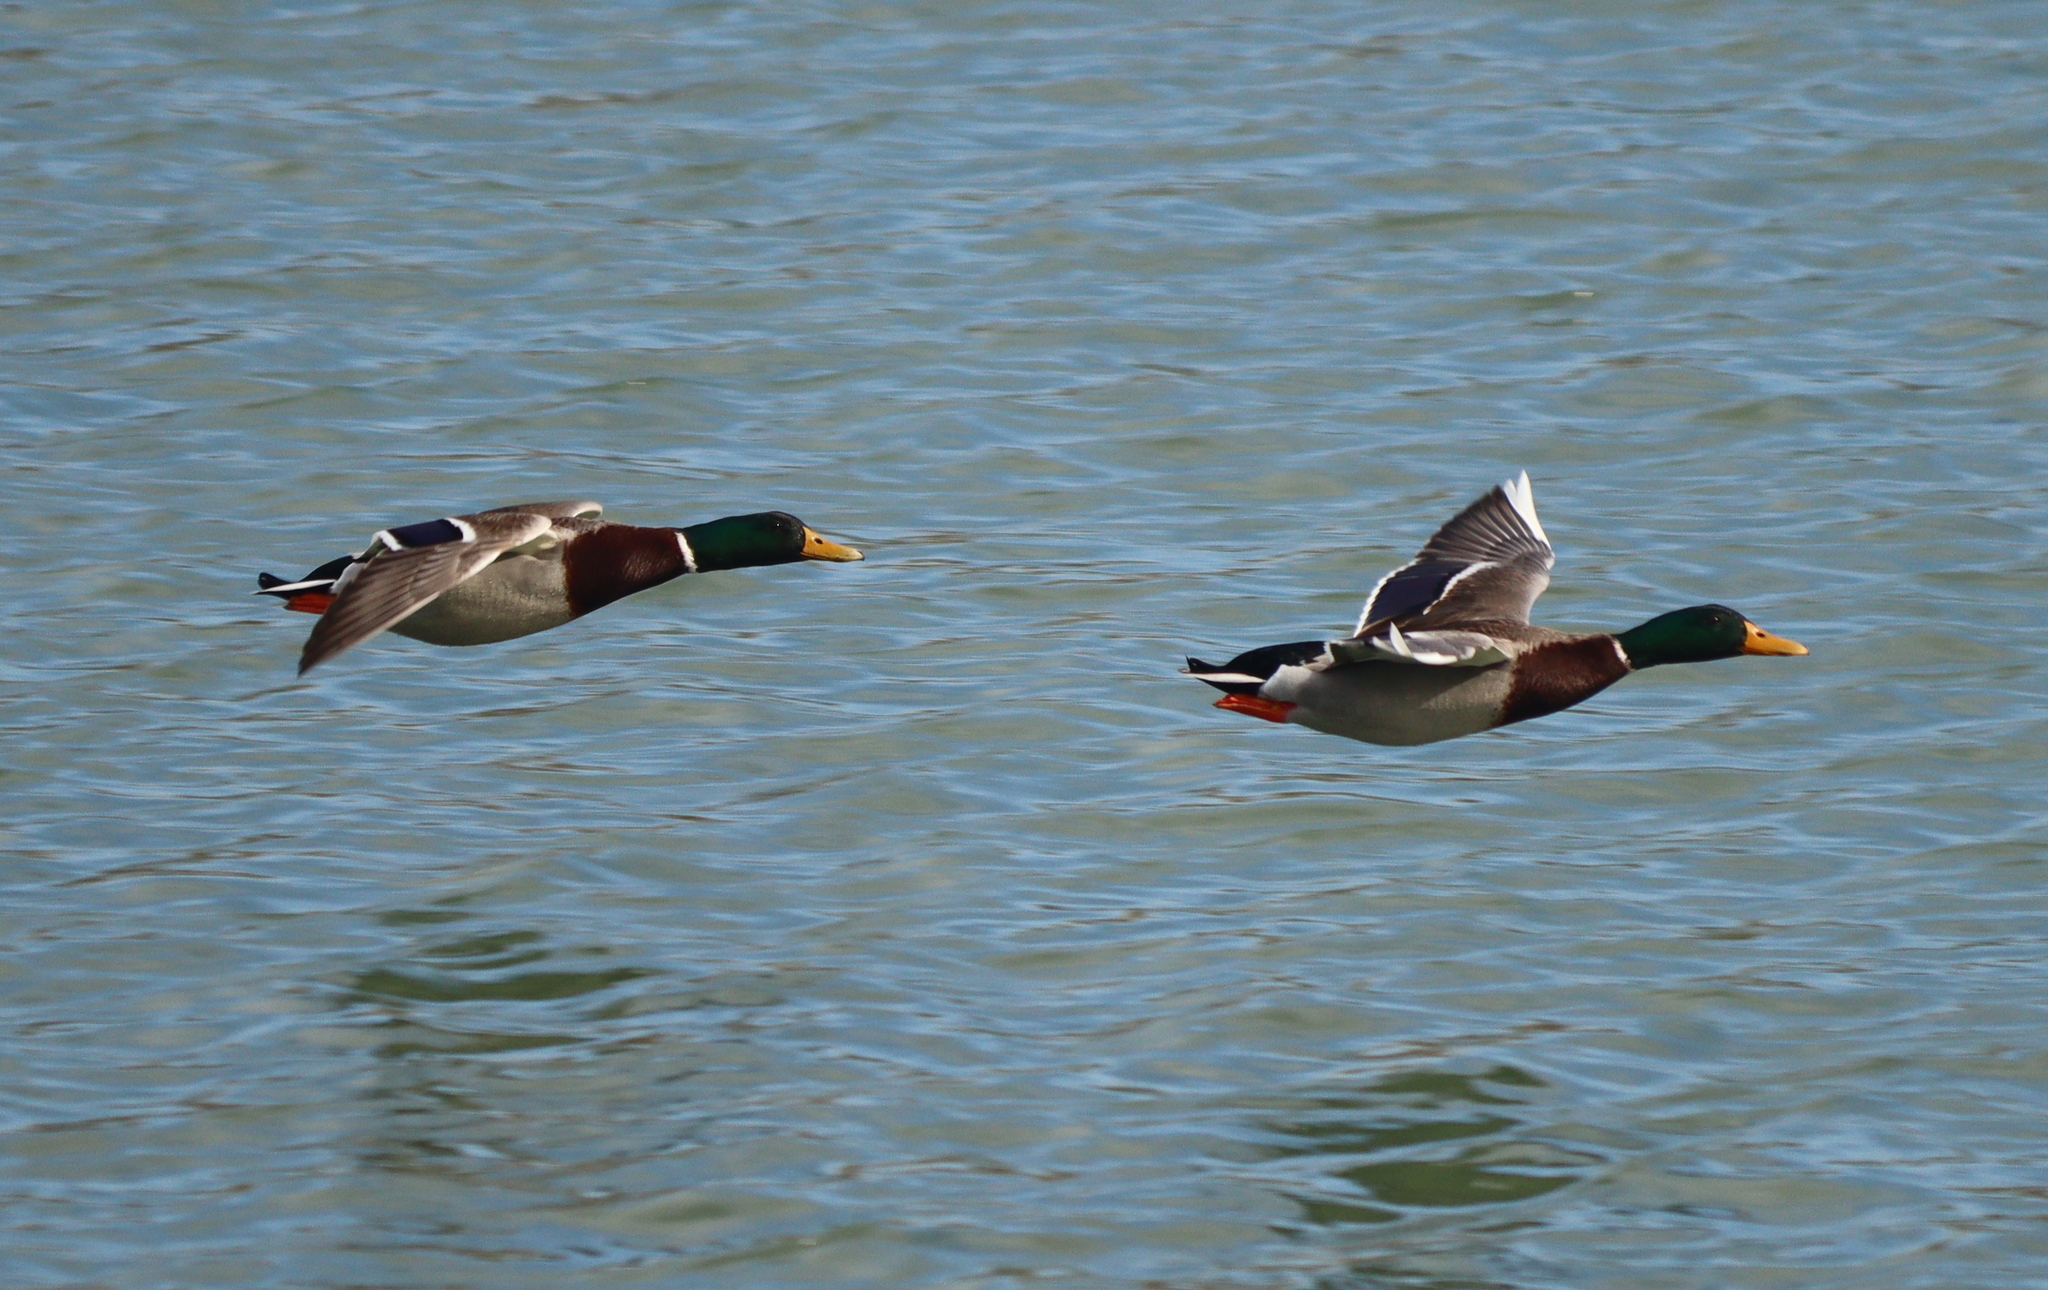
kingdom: Animalia
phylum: Chordata
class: Aves
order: Anseriformes
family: Anatidae
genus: Anas
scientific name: Anas platyrhynchos
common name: Mallard
